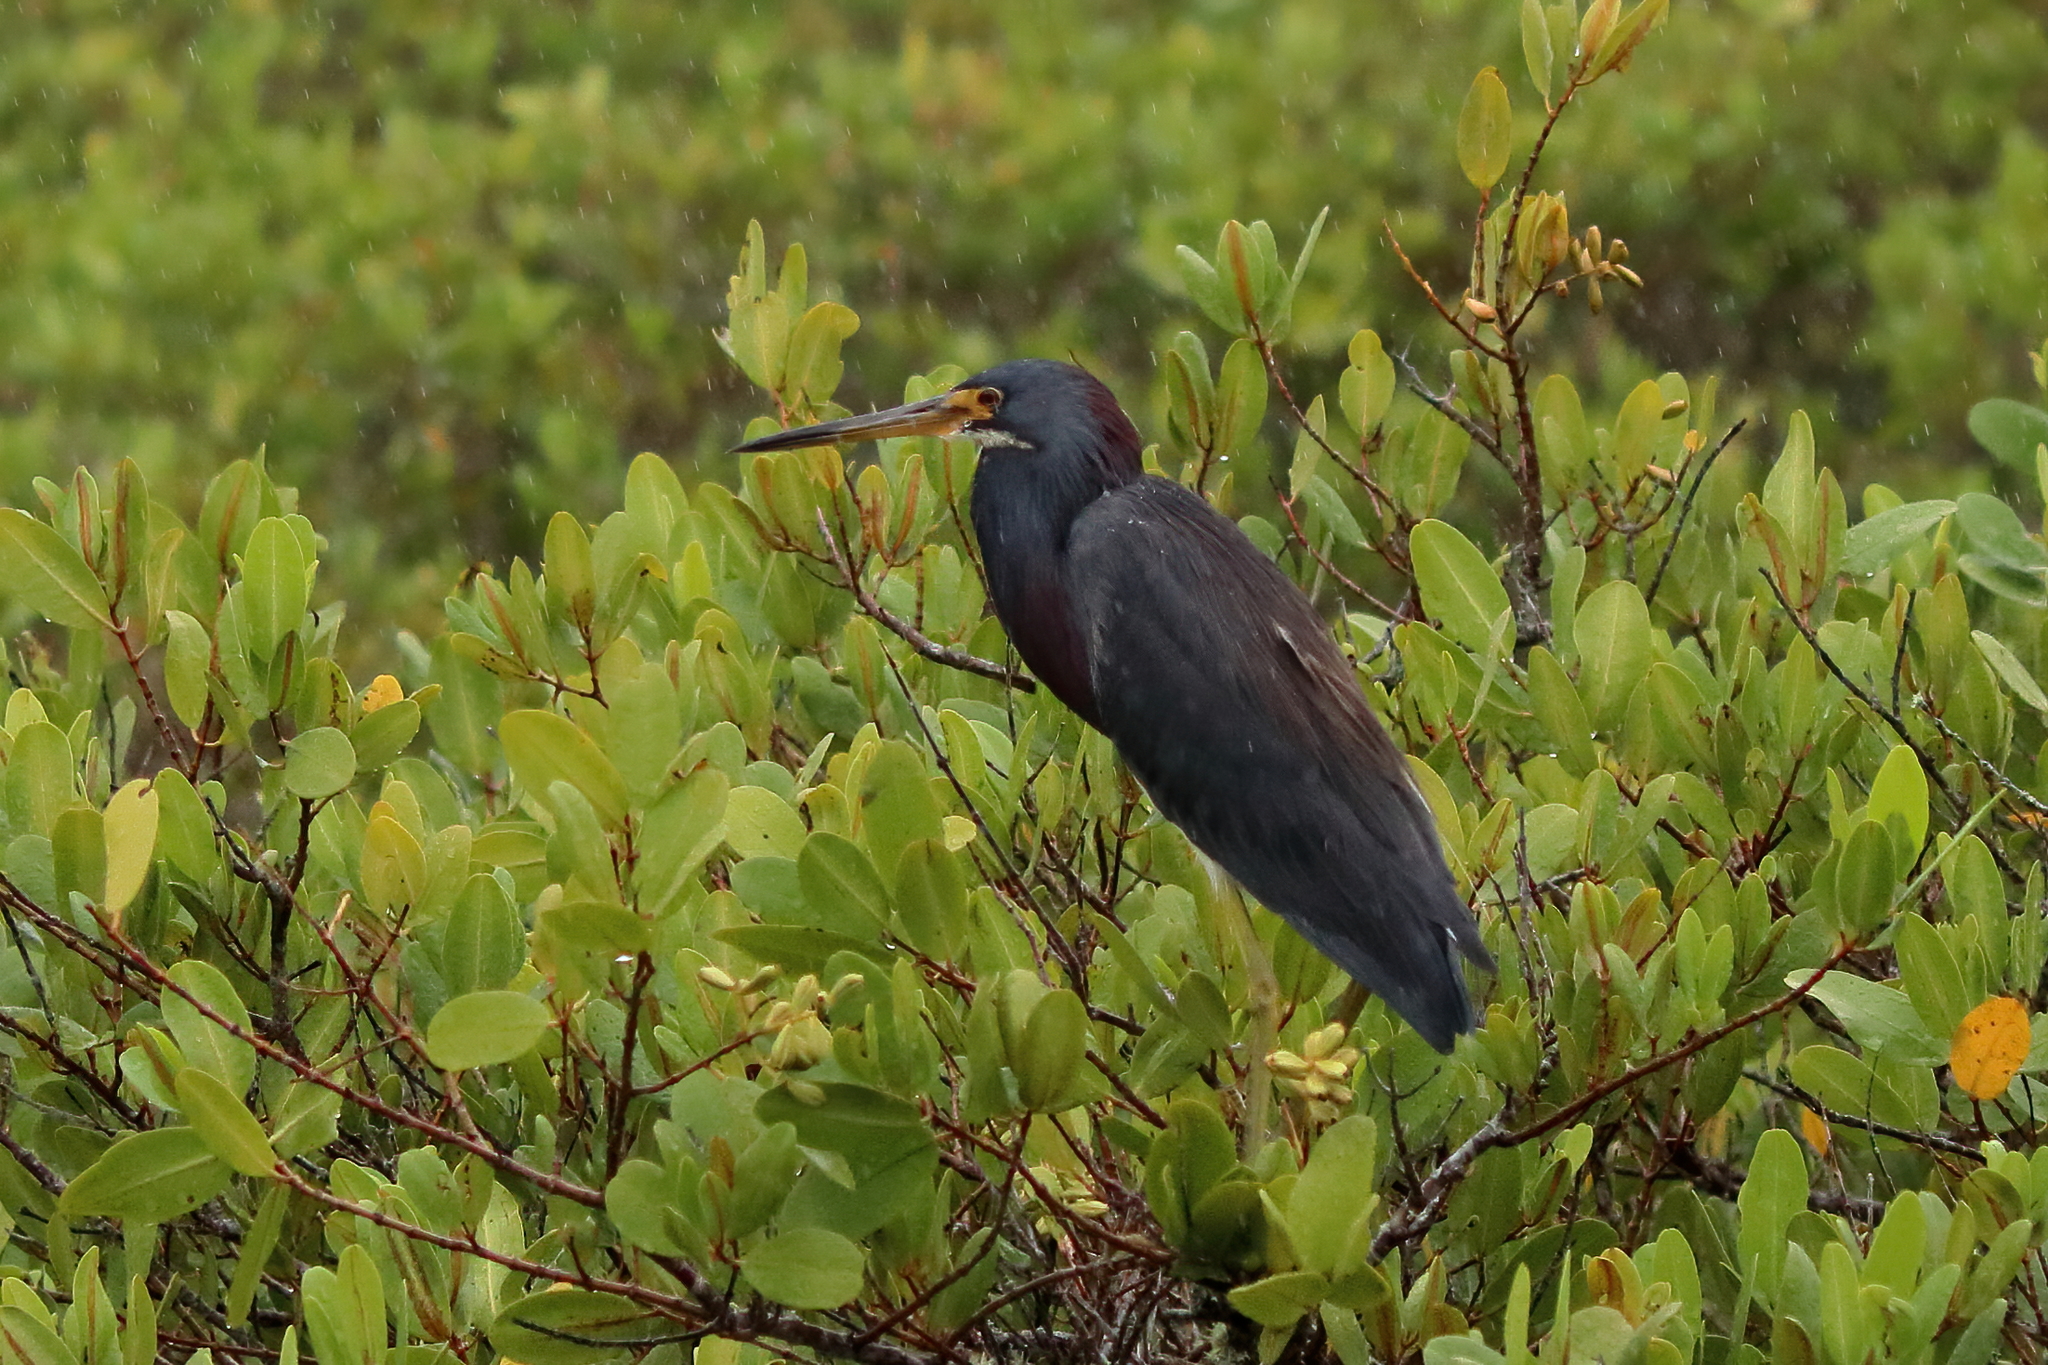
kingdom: Animalia
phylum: Chordata
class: Aves
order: Pelecaniformes
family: Ardeidae
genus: Egretta
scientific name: Egretta tricolor
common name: Tricolored heron
